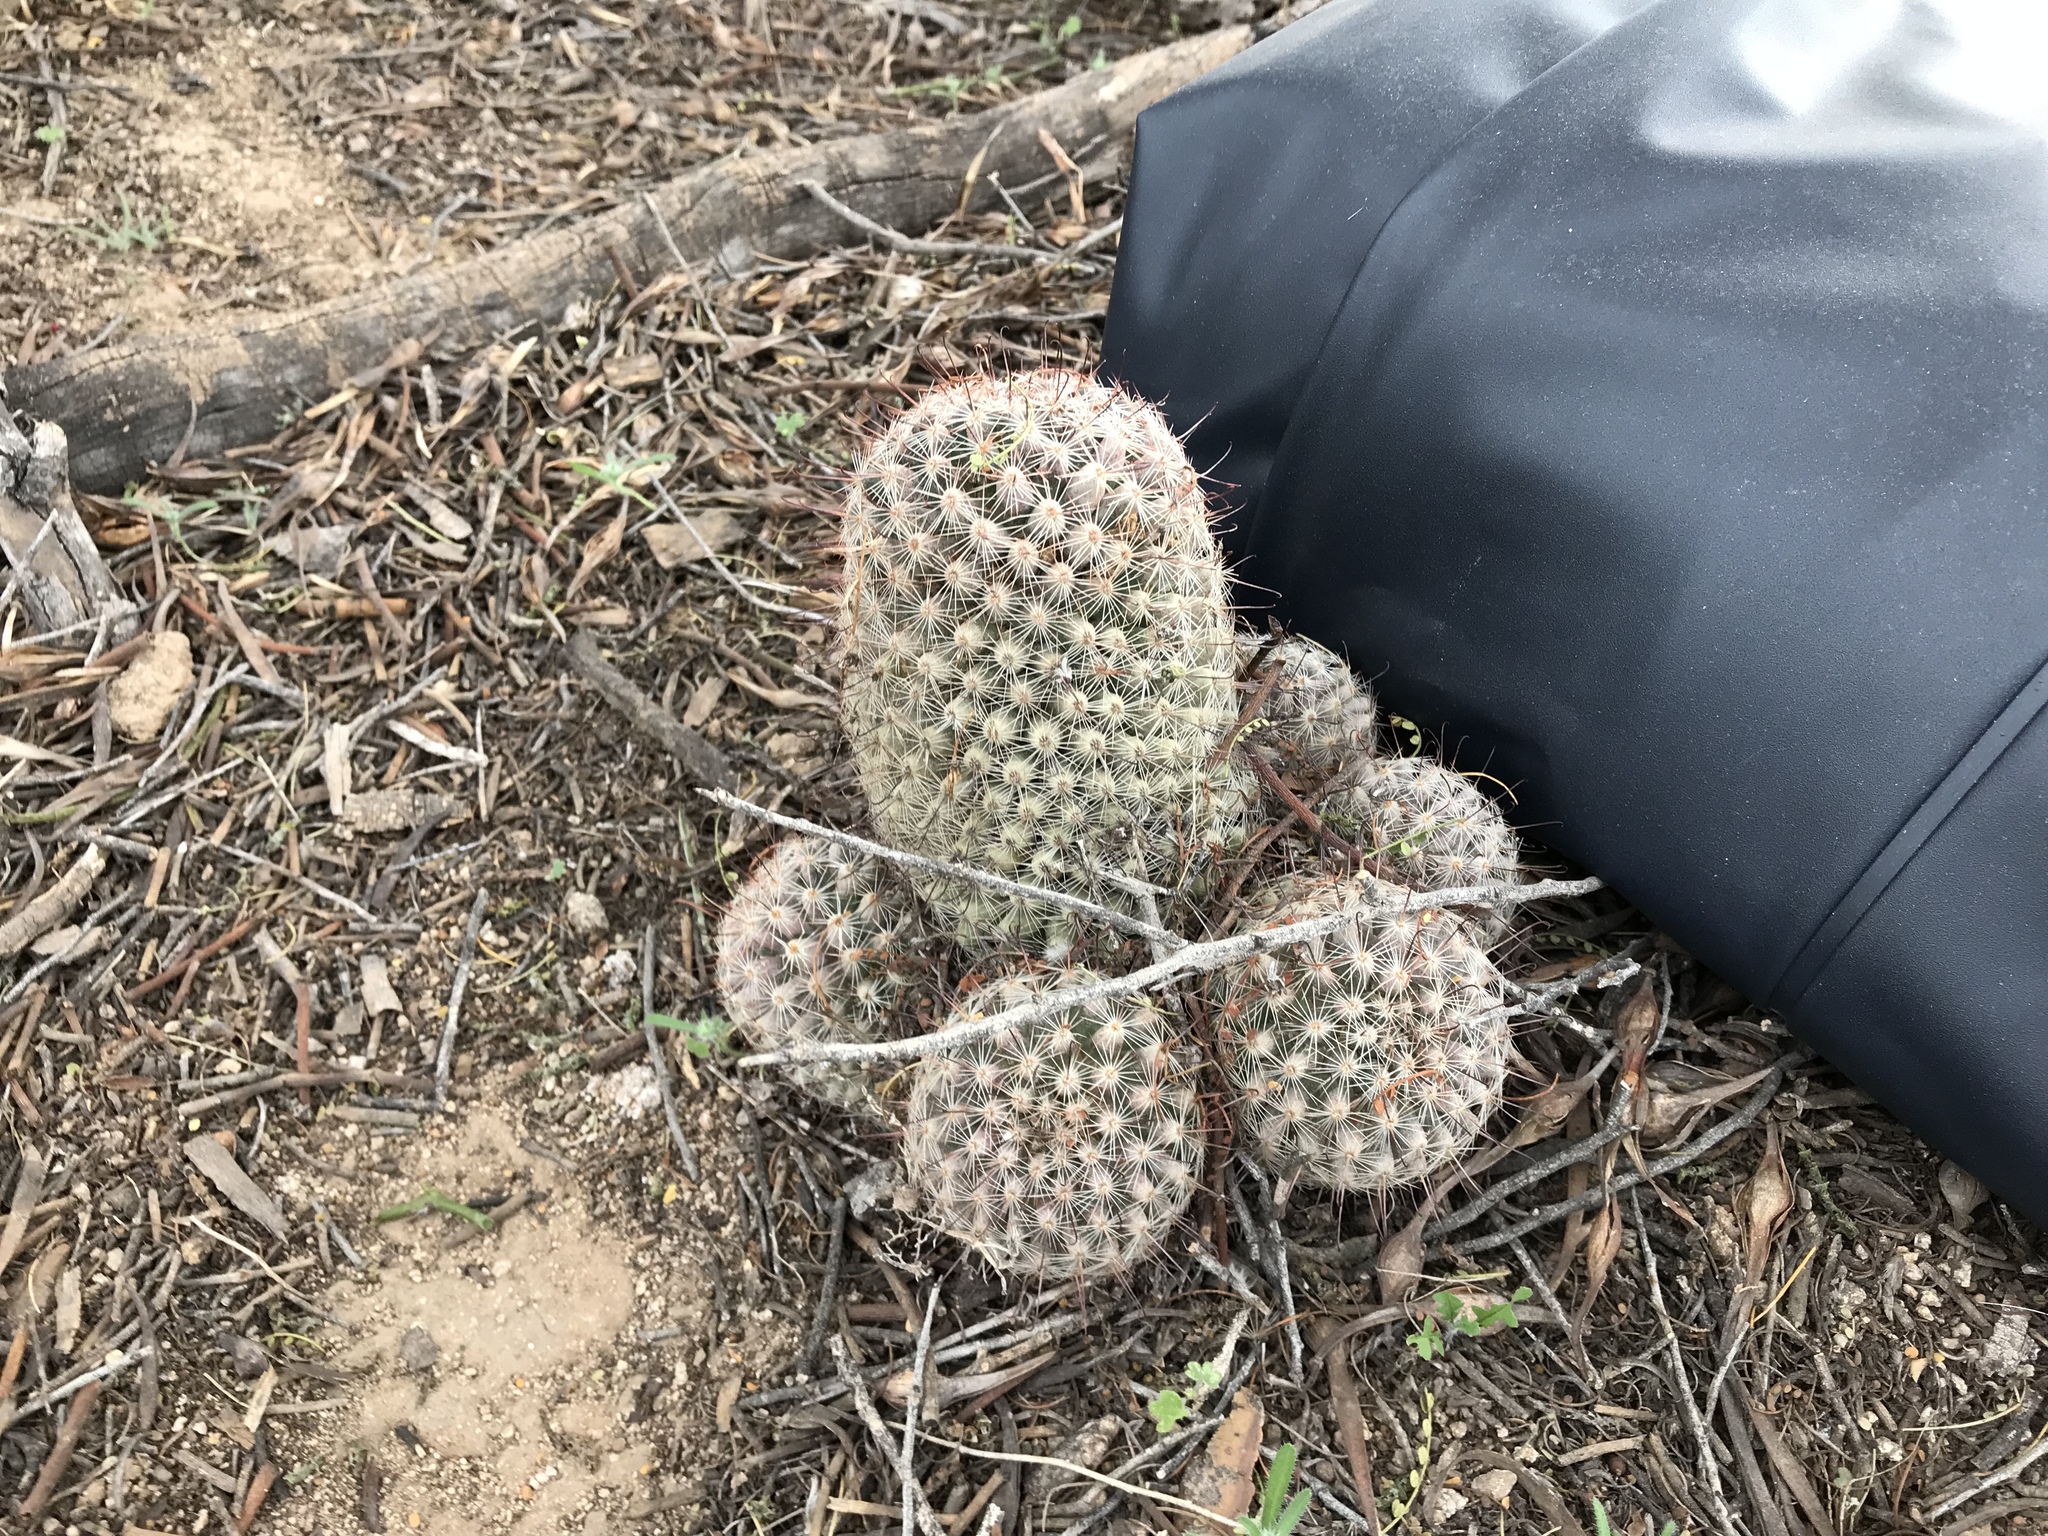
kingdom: Plantae
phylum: Tracheophyta
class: Magnoliopsida
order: Caryophyllales
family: Cactaceae
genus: Cochemiea
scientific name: Cochemiea grahamii
